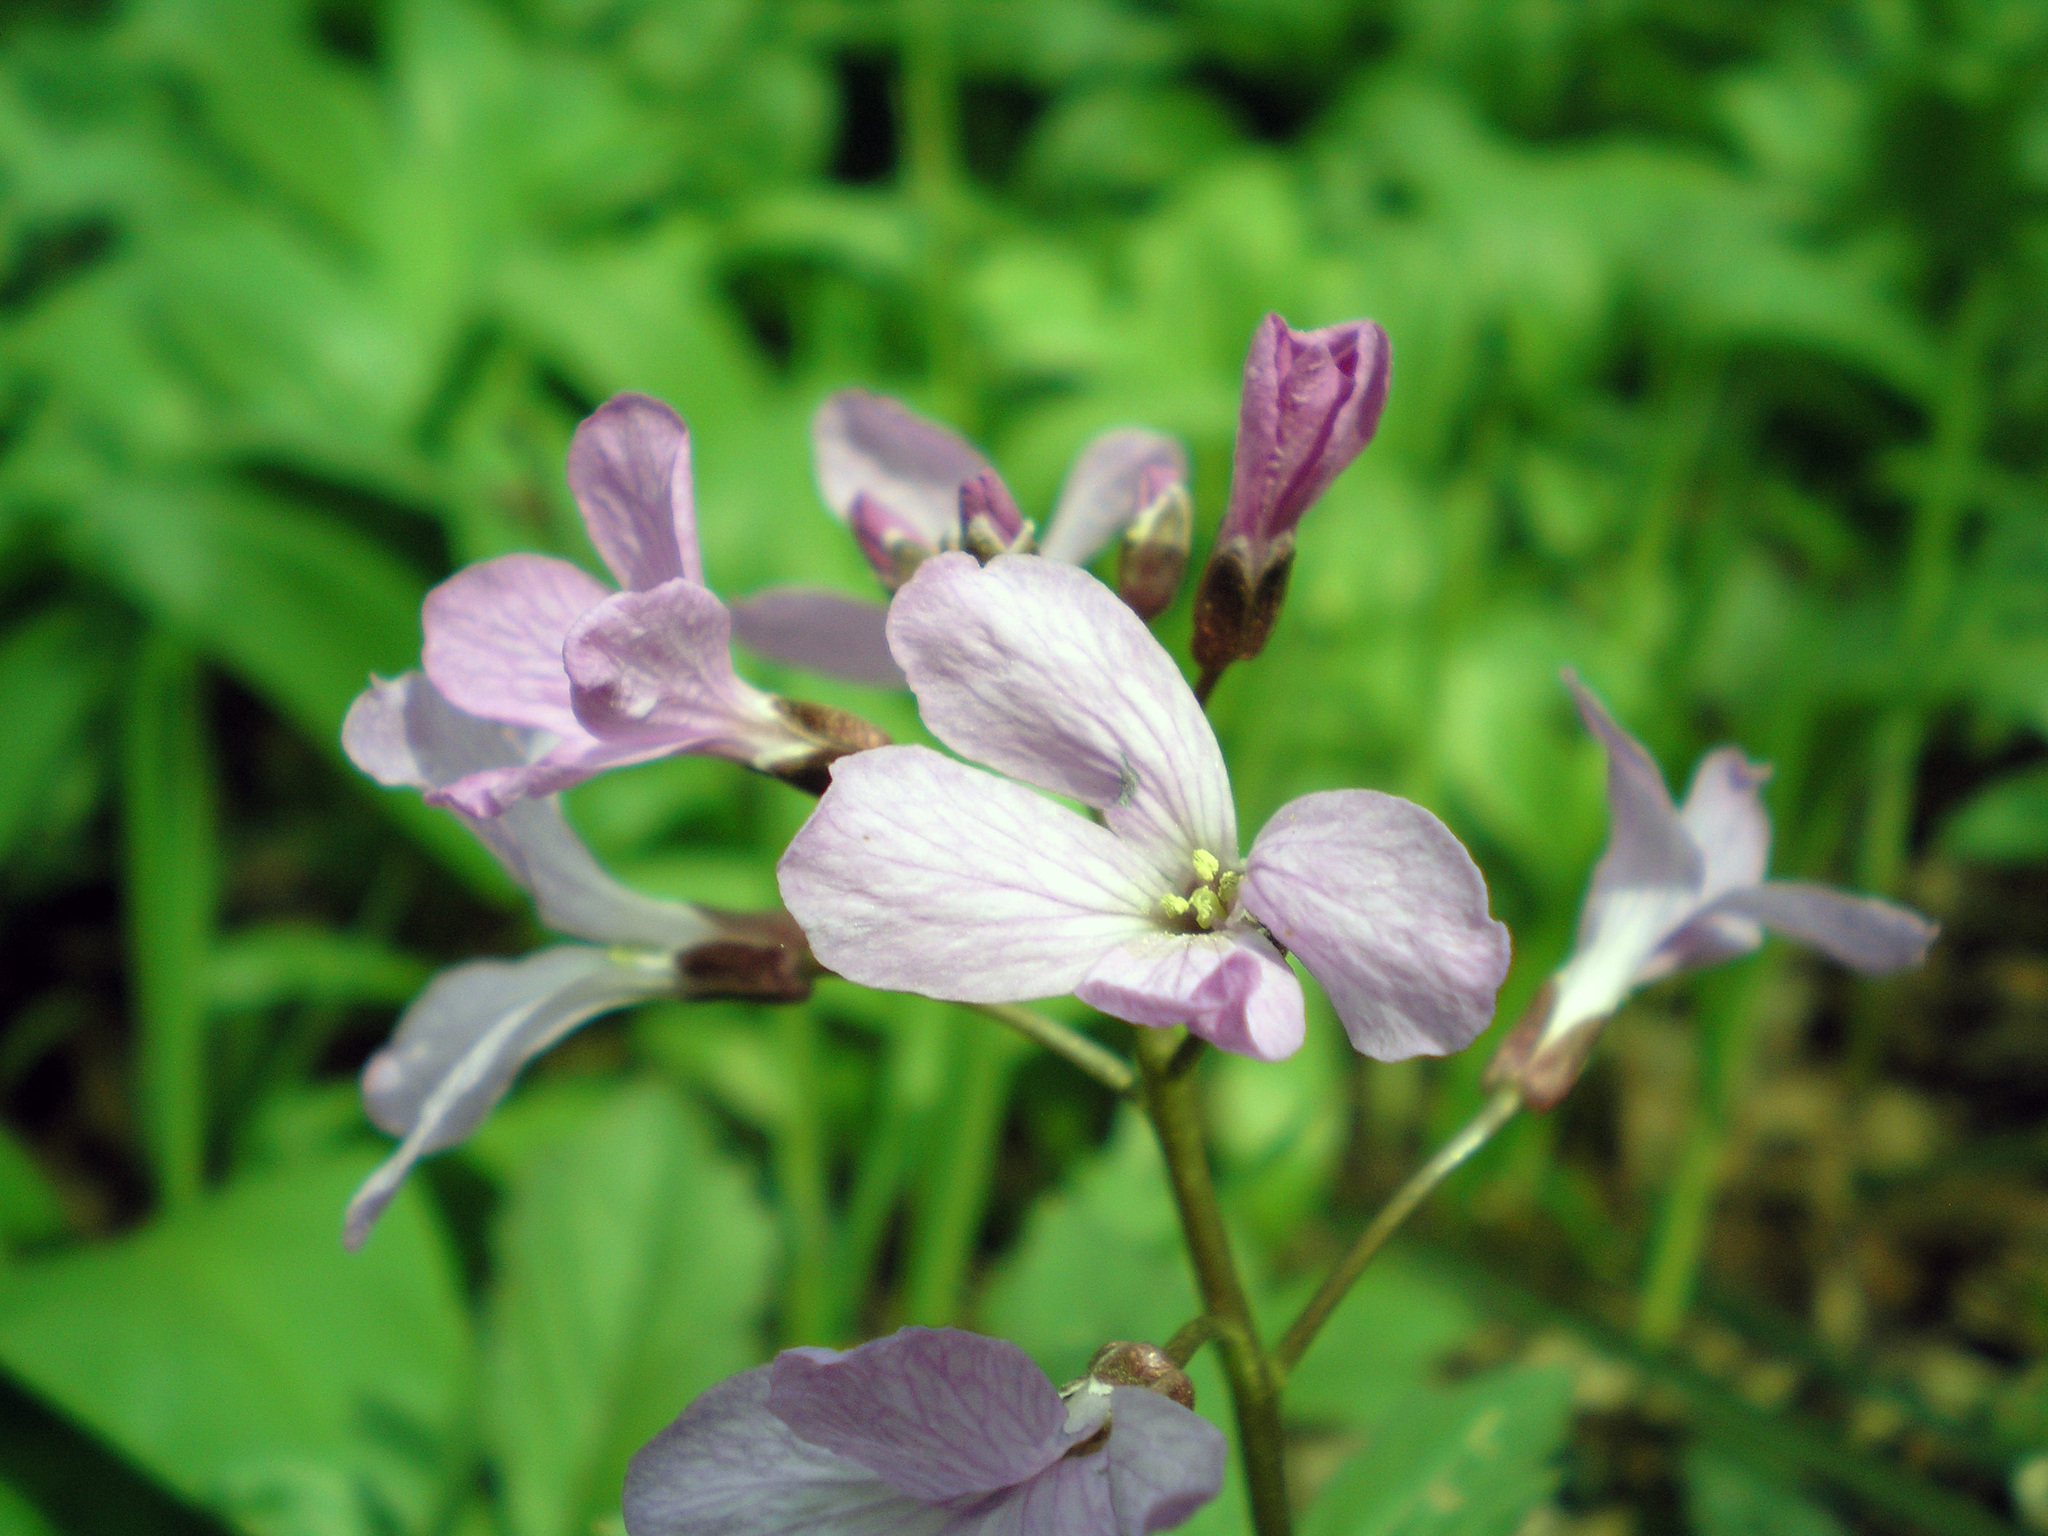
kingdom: Plantae
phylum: Tracheophyta
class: Magnoliopsida
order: Brassicales
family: Brassicaceae
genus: Cardamine
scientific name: Cardamine quinquefolia
